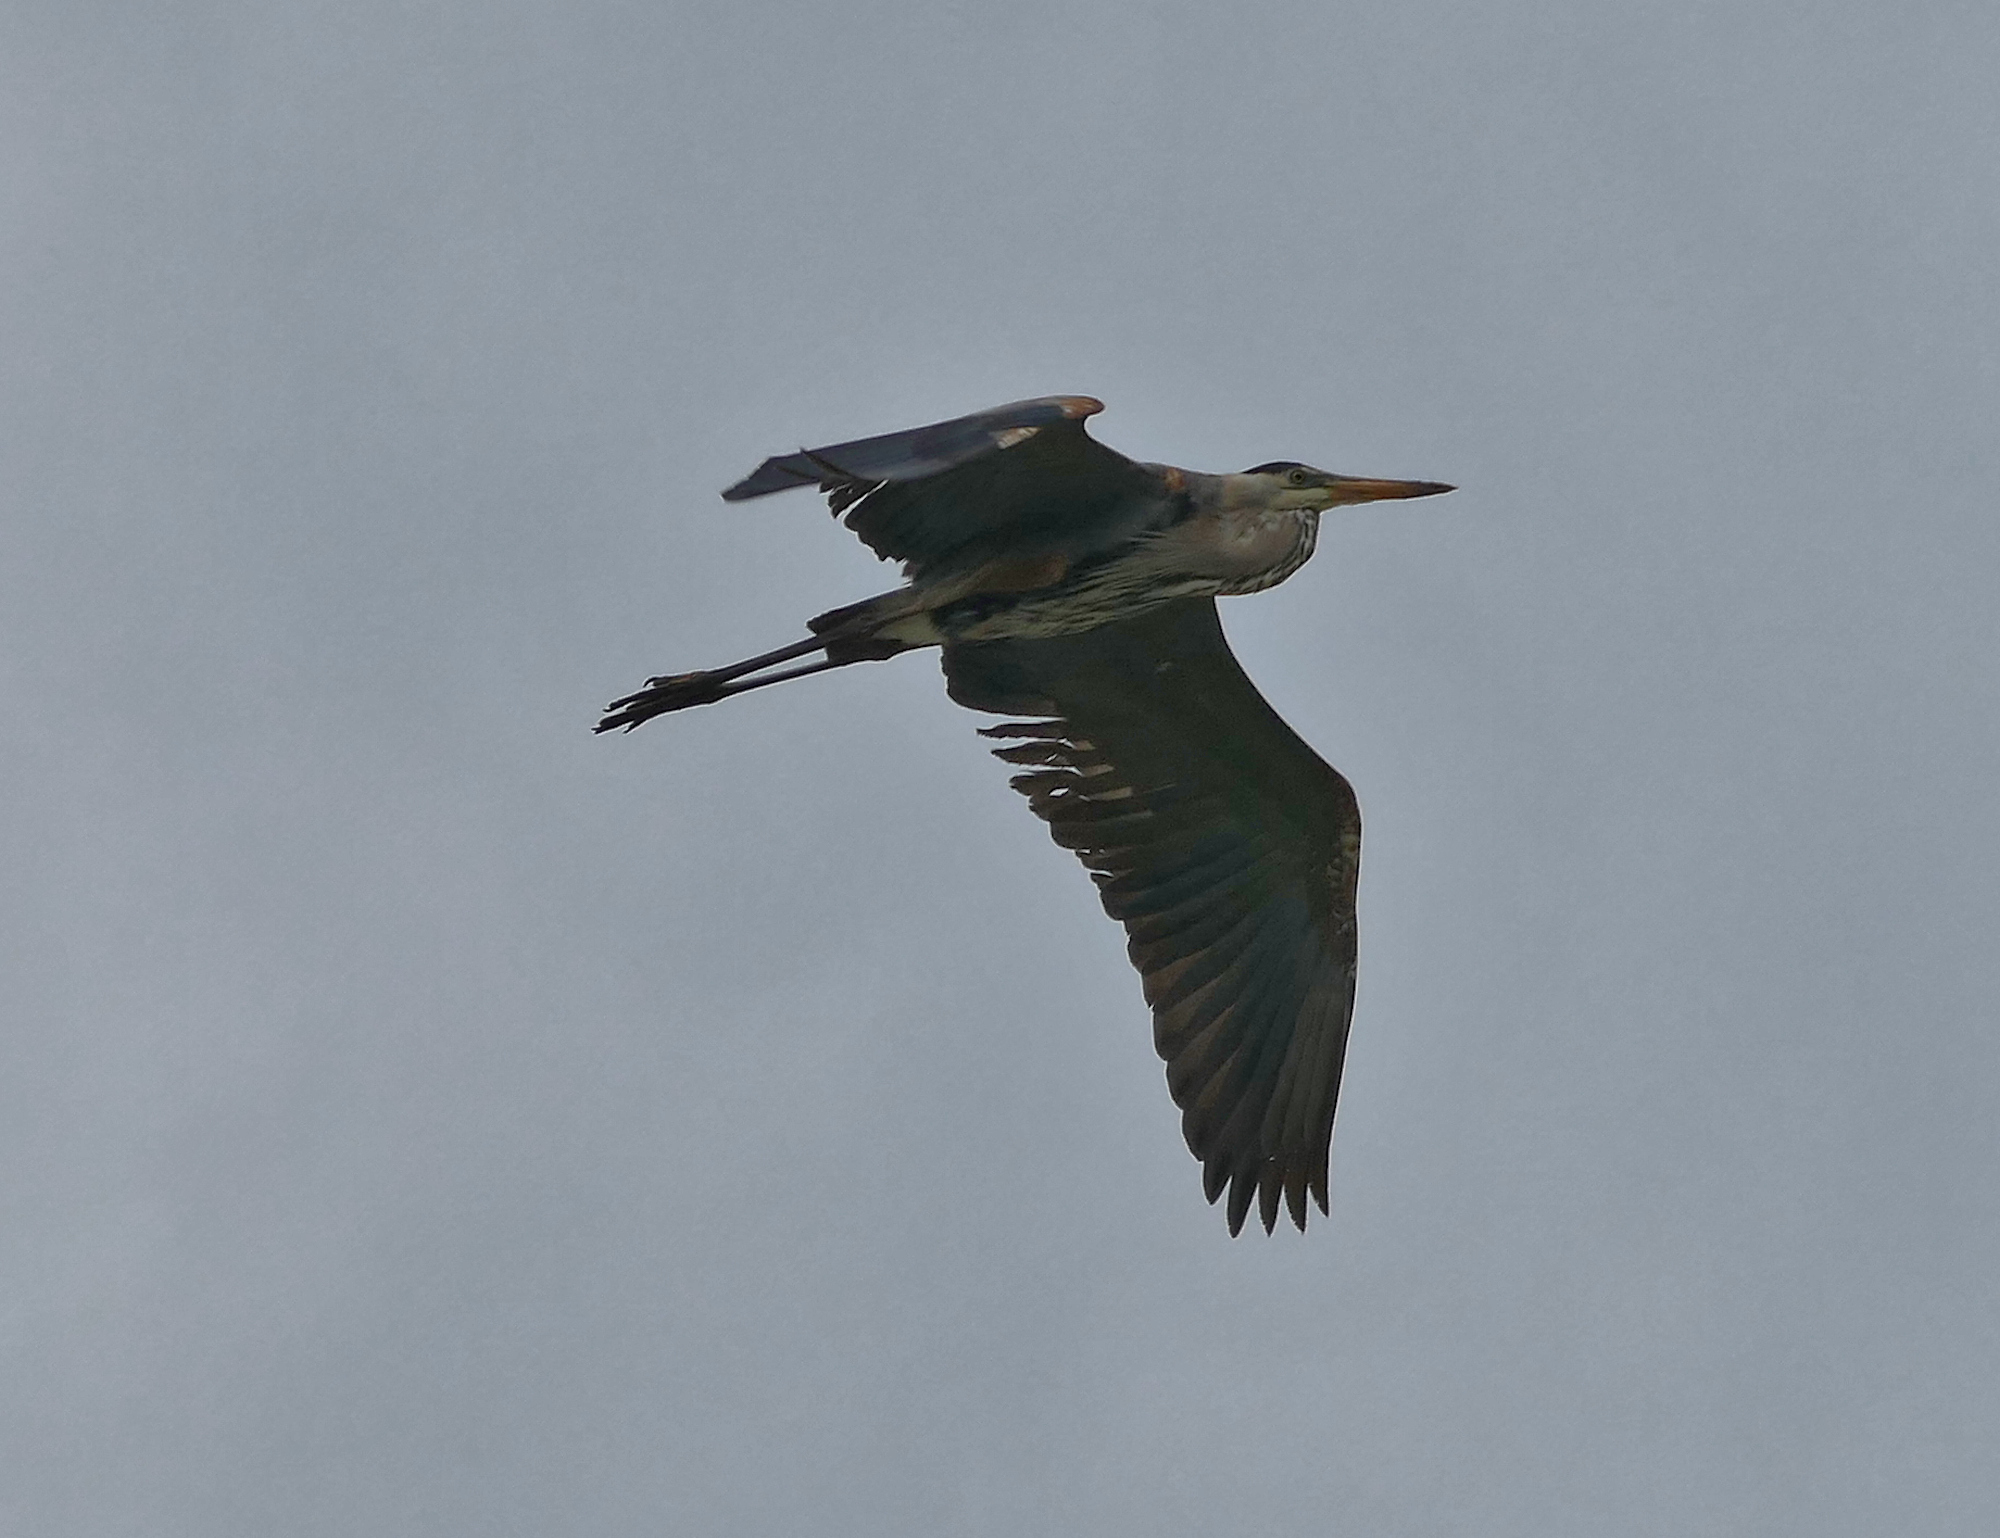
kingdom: Animalia
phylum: Chordata
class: Aves
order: Pelecaniformes
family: Ardeidae
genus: Ardea
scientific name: Ardea herodias
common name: Great blue heron
